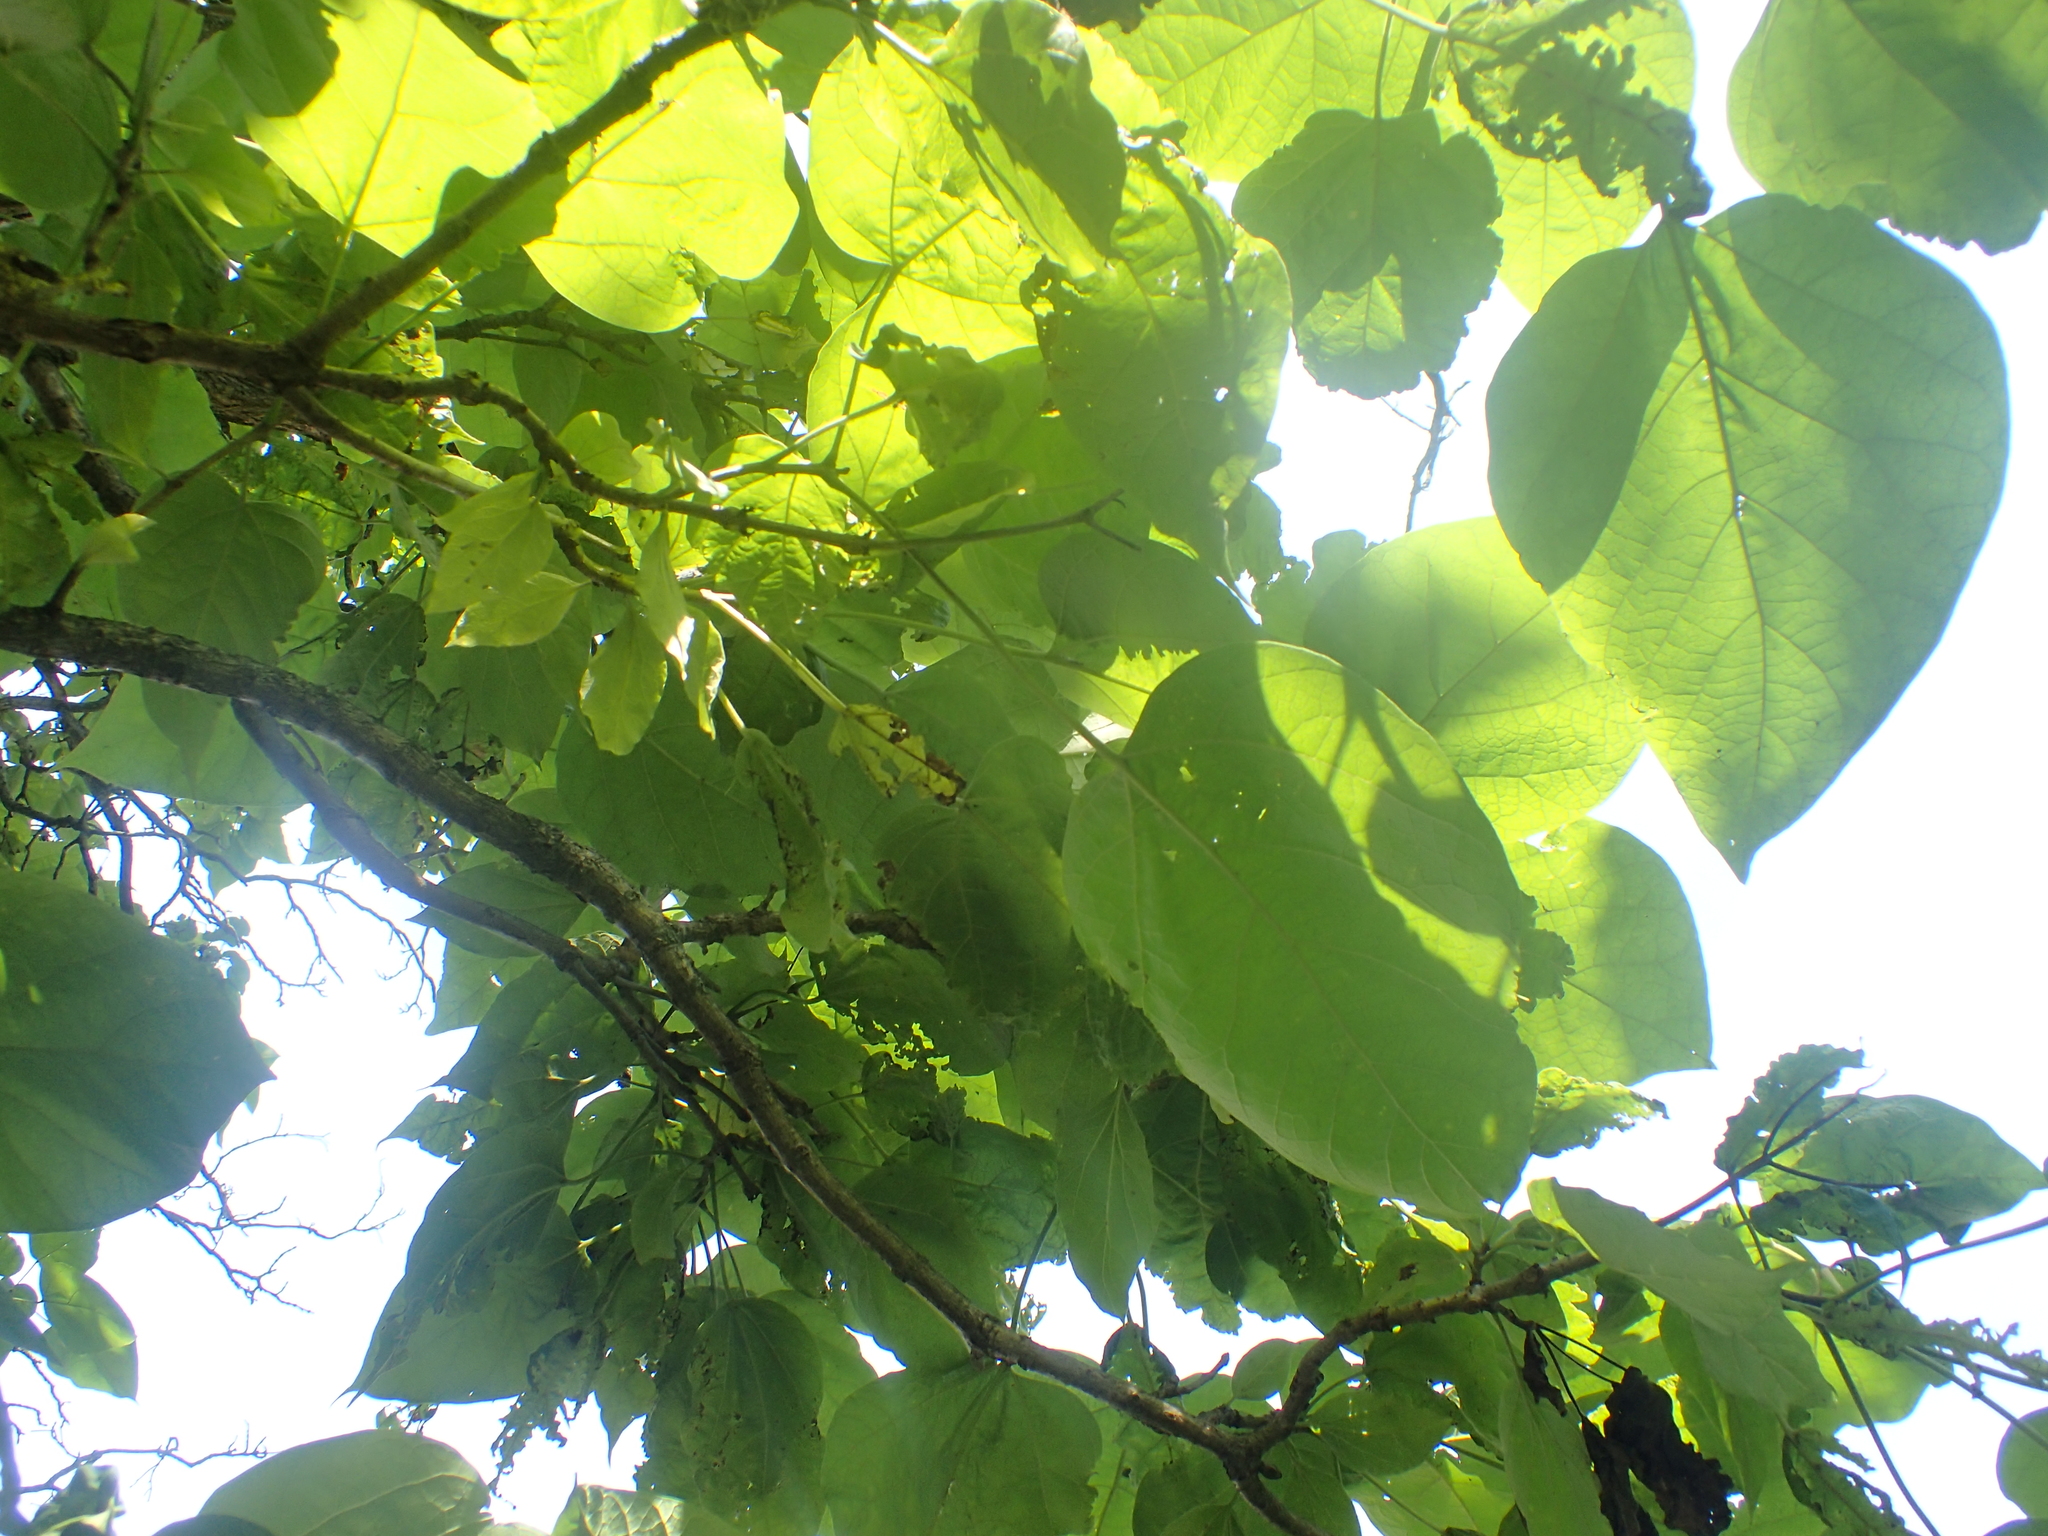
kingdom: Plantae
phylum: Tracheophyta
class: Magnoliopsida
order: Lamiales
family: Bignoniaceae
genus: Catalpa
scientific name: Catalpa speciosa
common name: Northern catalpa
